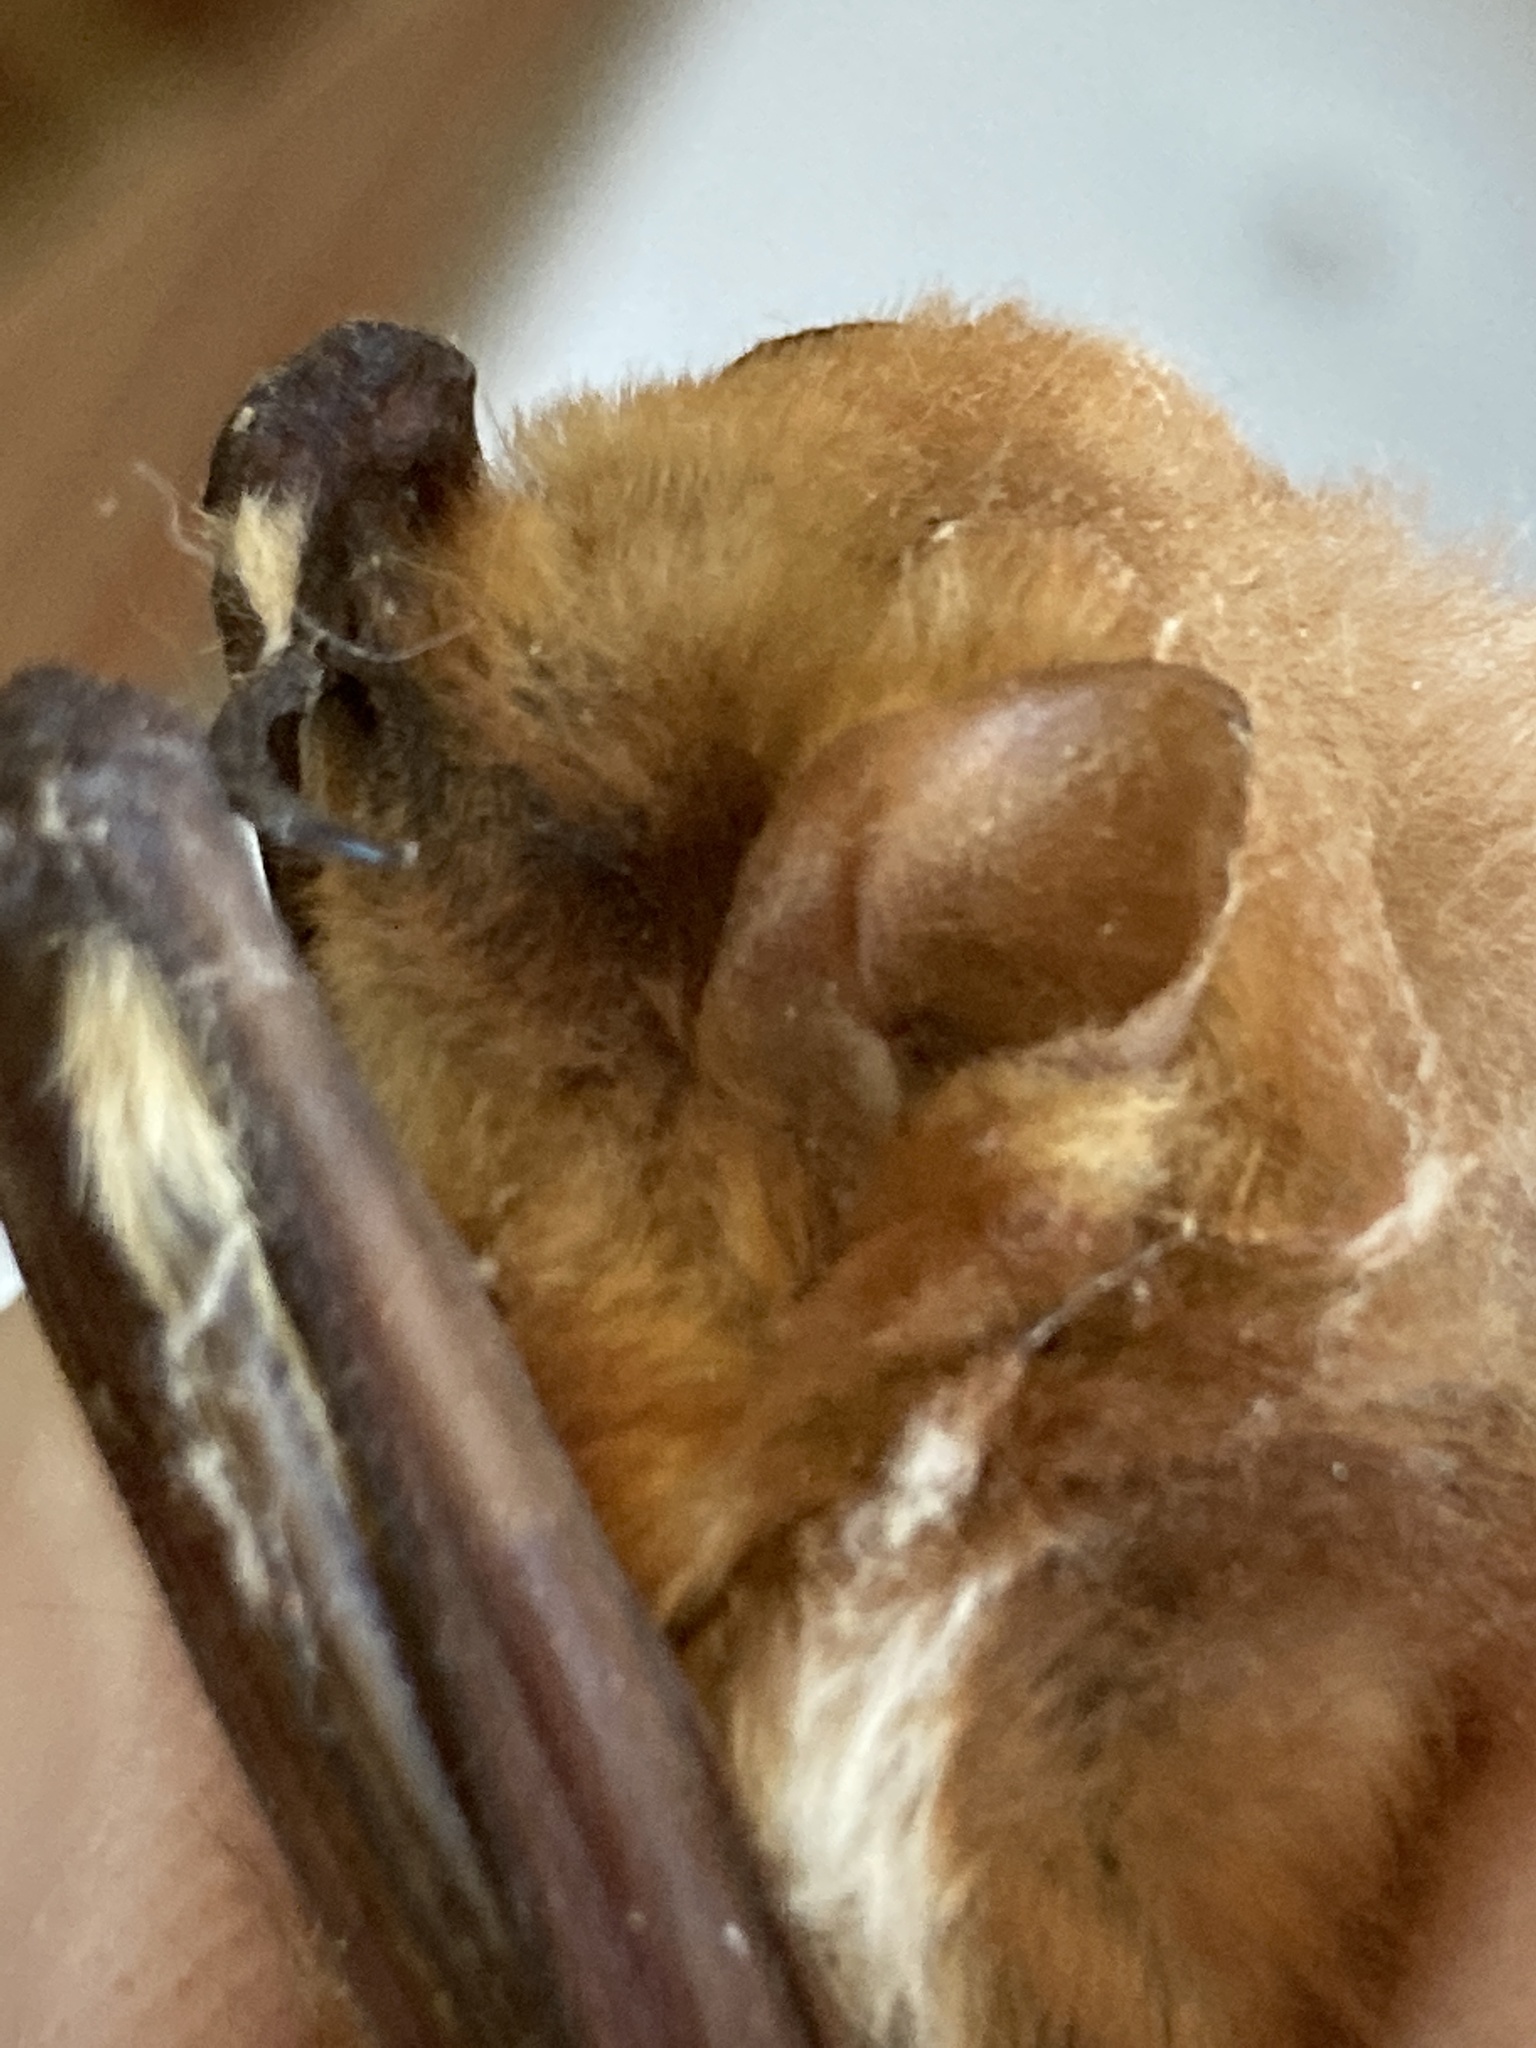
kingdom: Animalia
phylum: Chordata
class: Mammalia
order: Chiroptera
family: Vespertilionidae
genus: Lasiurus
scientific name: Lasiurus borealis
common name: Eastern red bat
